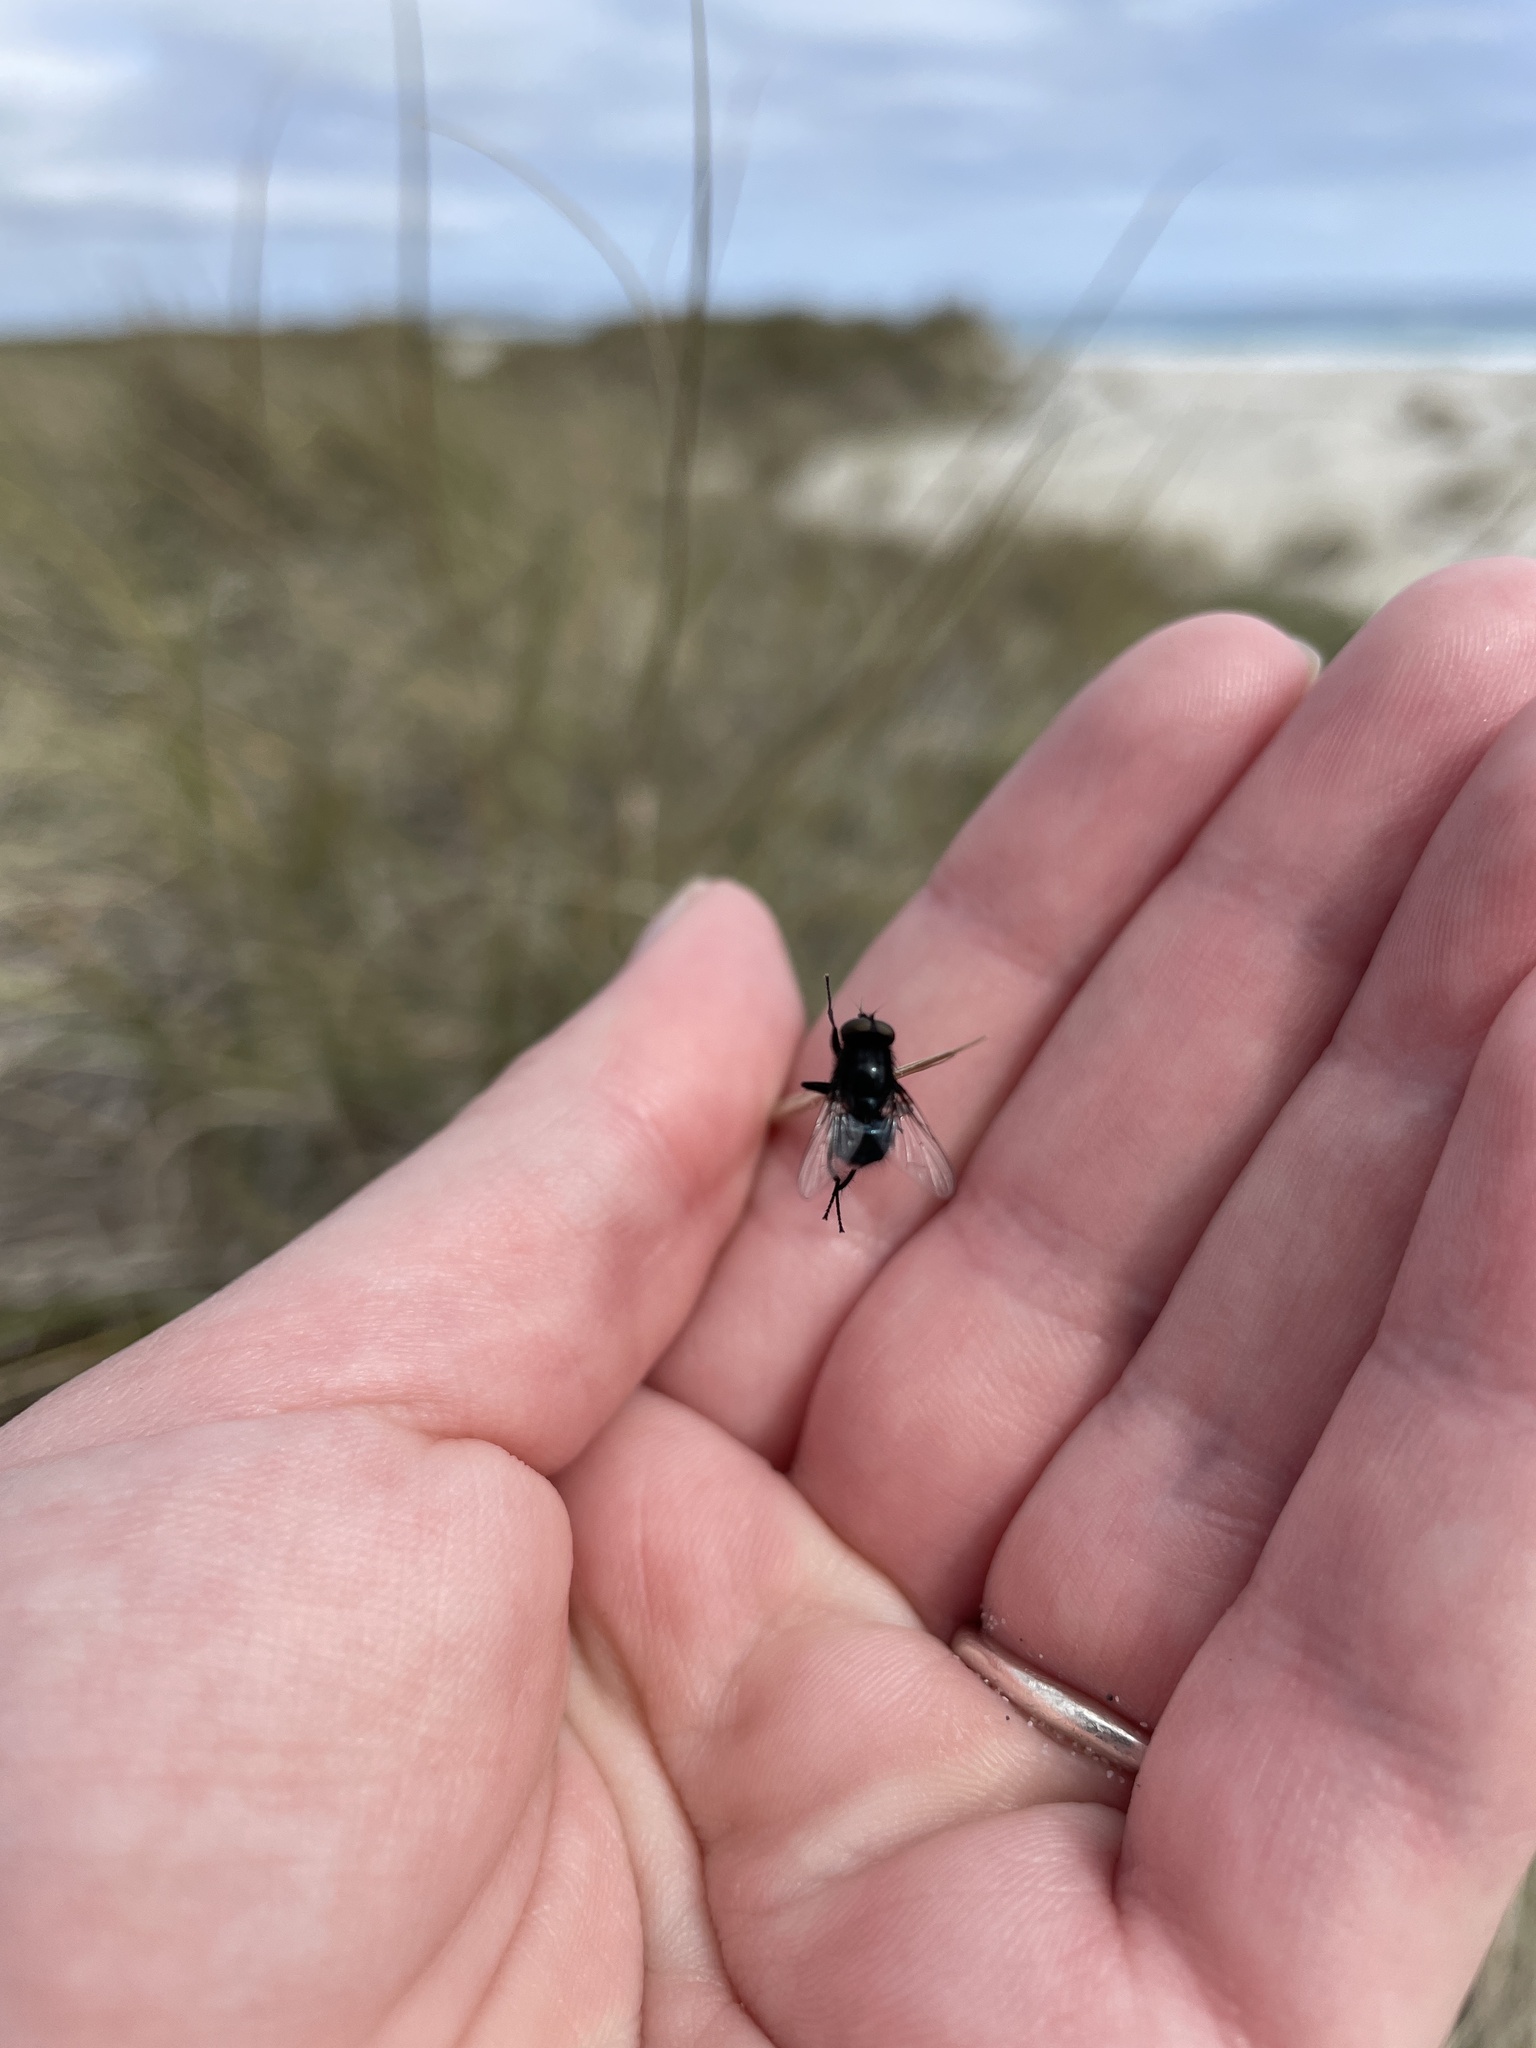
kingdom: Animalia
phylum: Arthropoda
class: Insecta
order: Diptera
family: Muscidae
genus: Australophyra
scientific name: Australophyra rostrata
